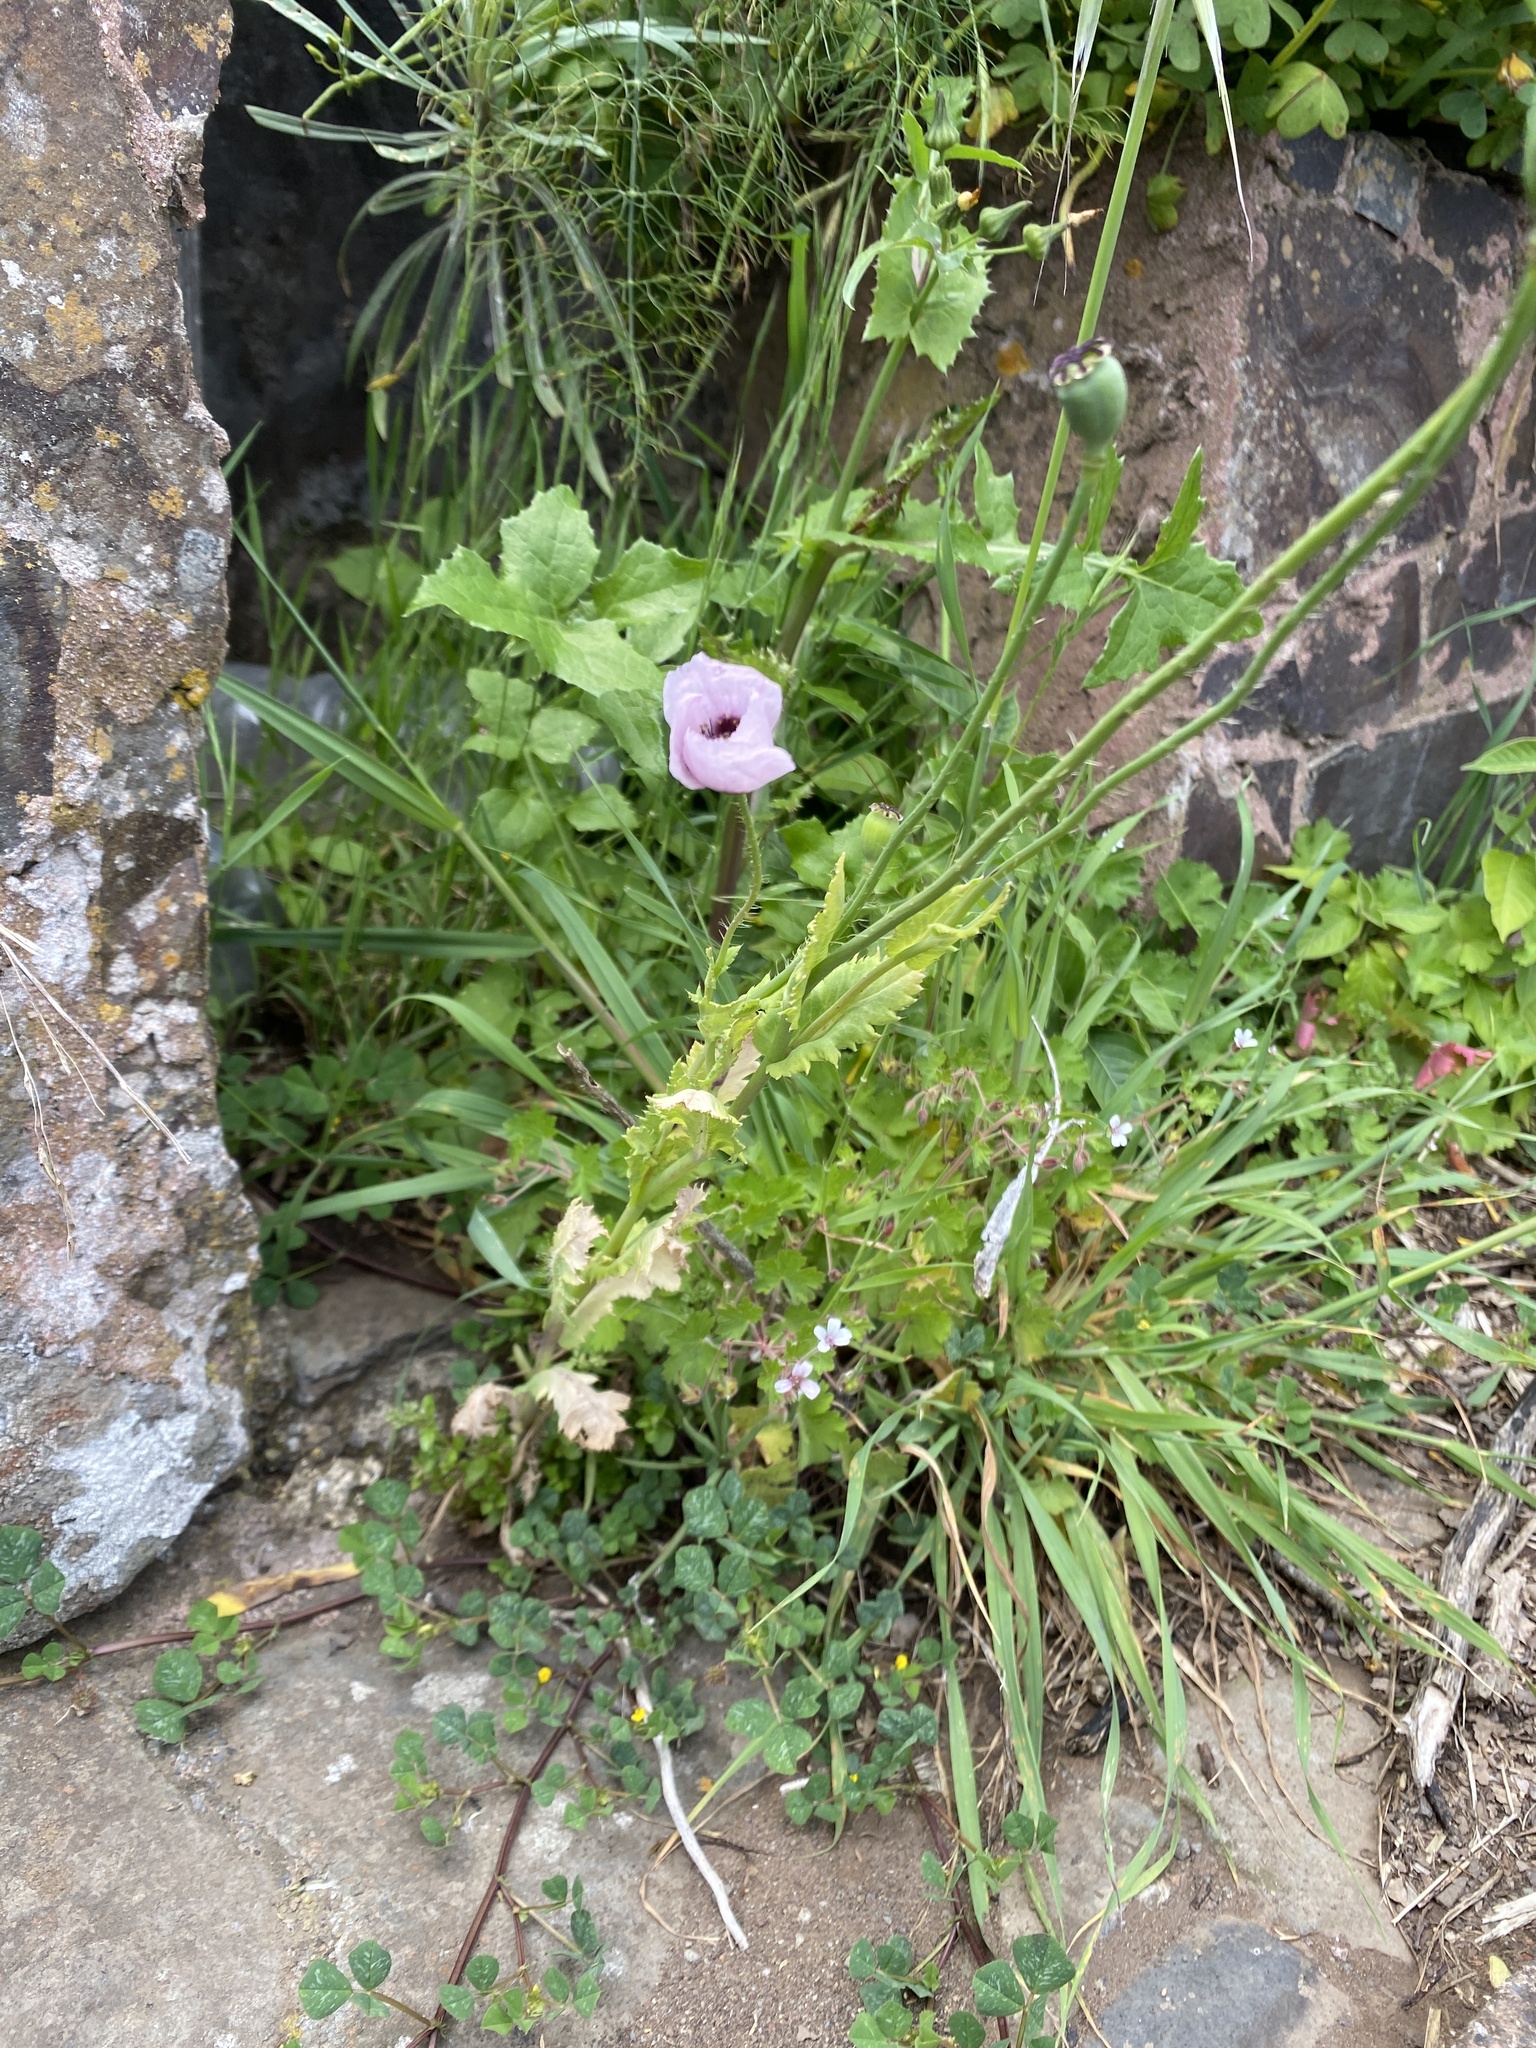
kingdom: Plantae
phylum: Tracheophyta
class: Magnoliopsida
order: Ranunculales
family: Papaveraceae
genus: Papaver
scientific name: Papaver setigerum
